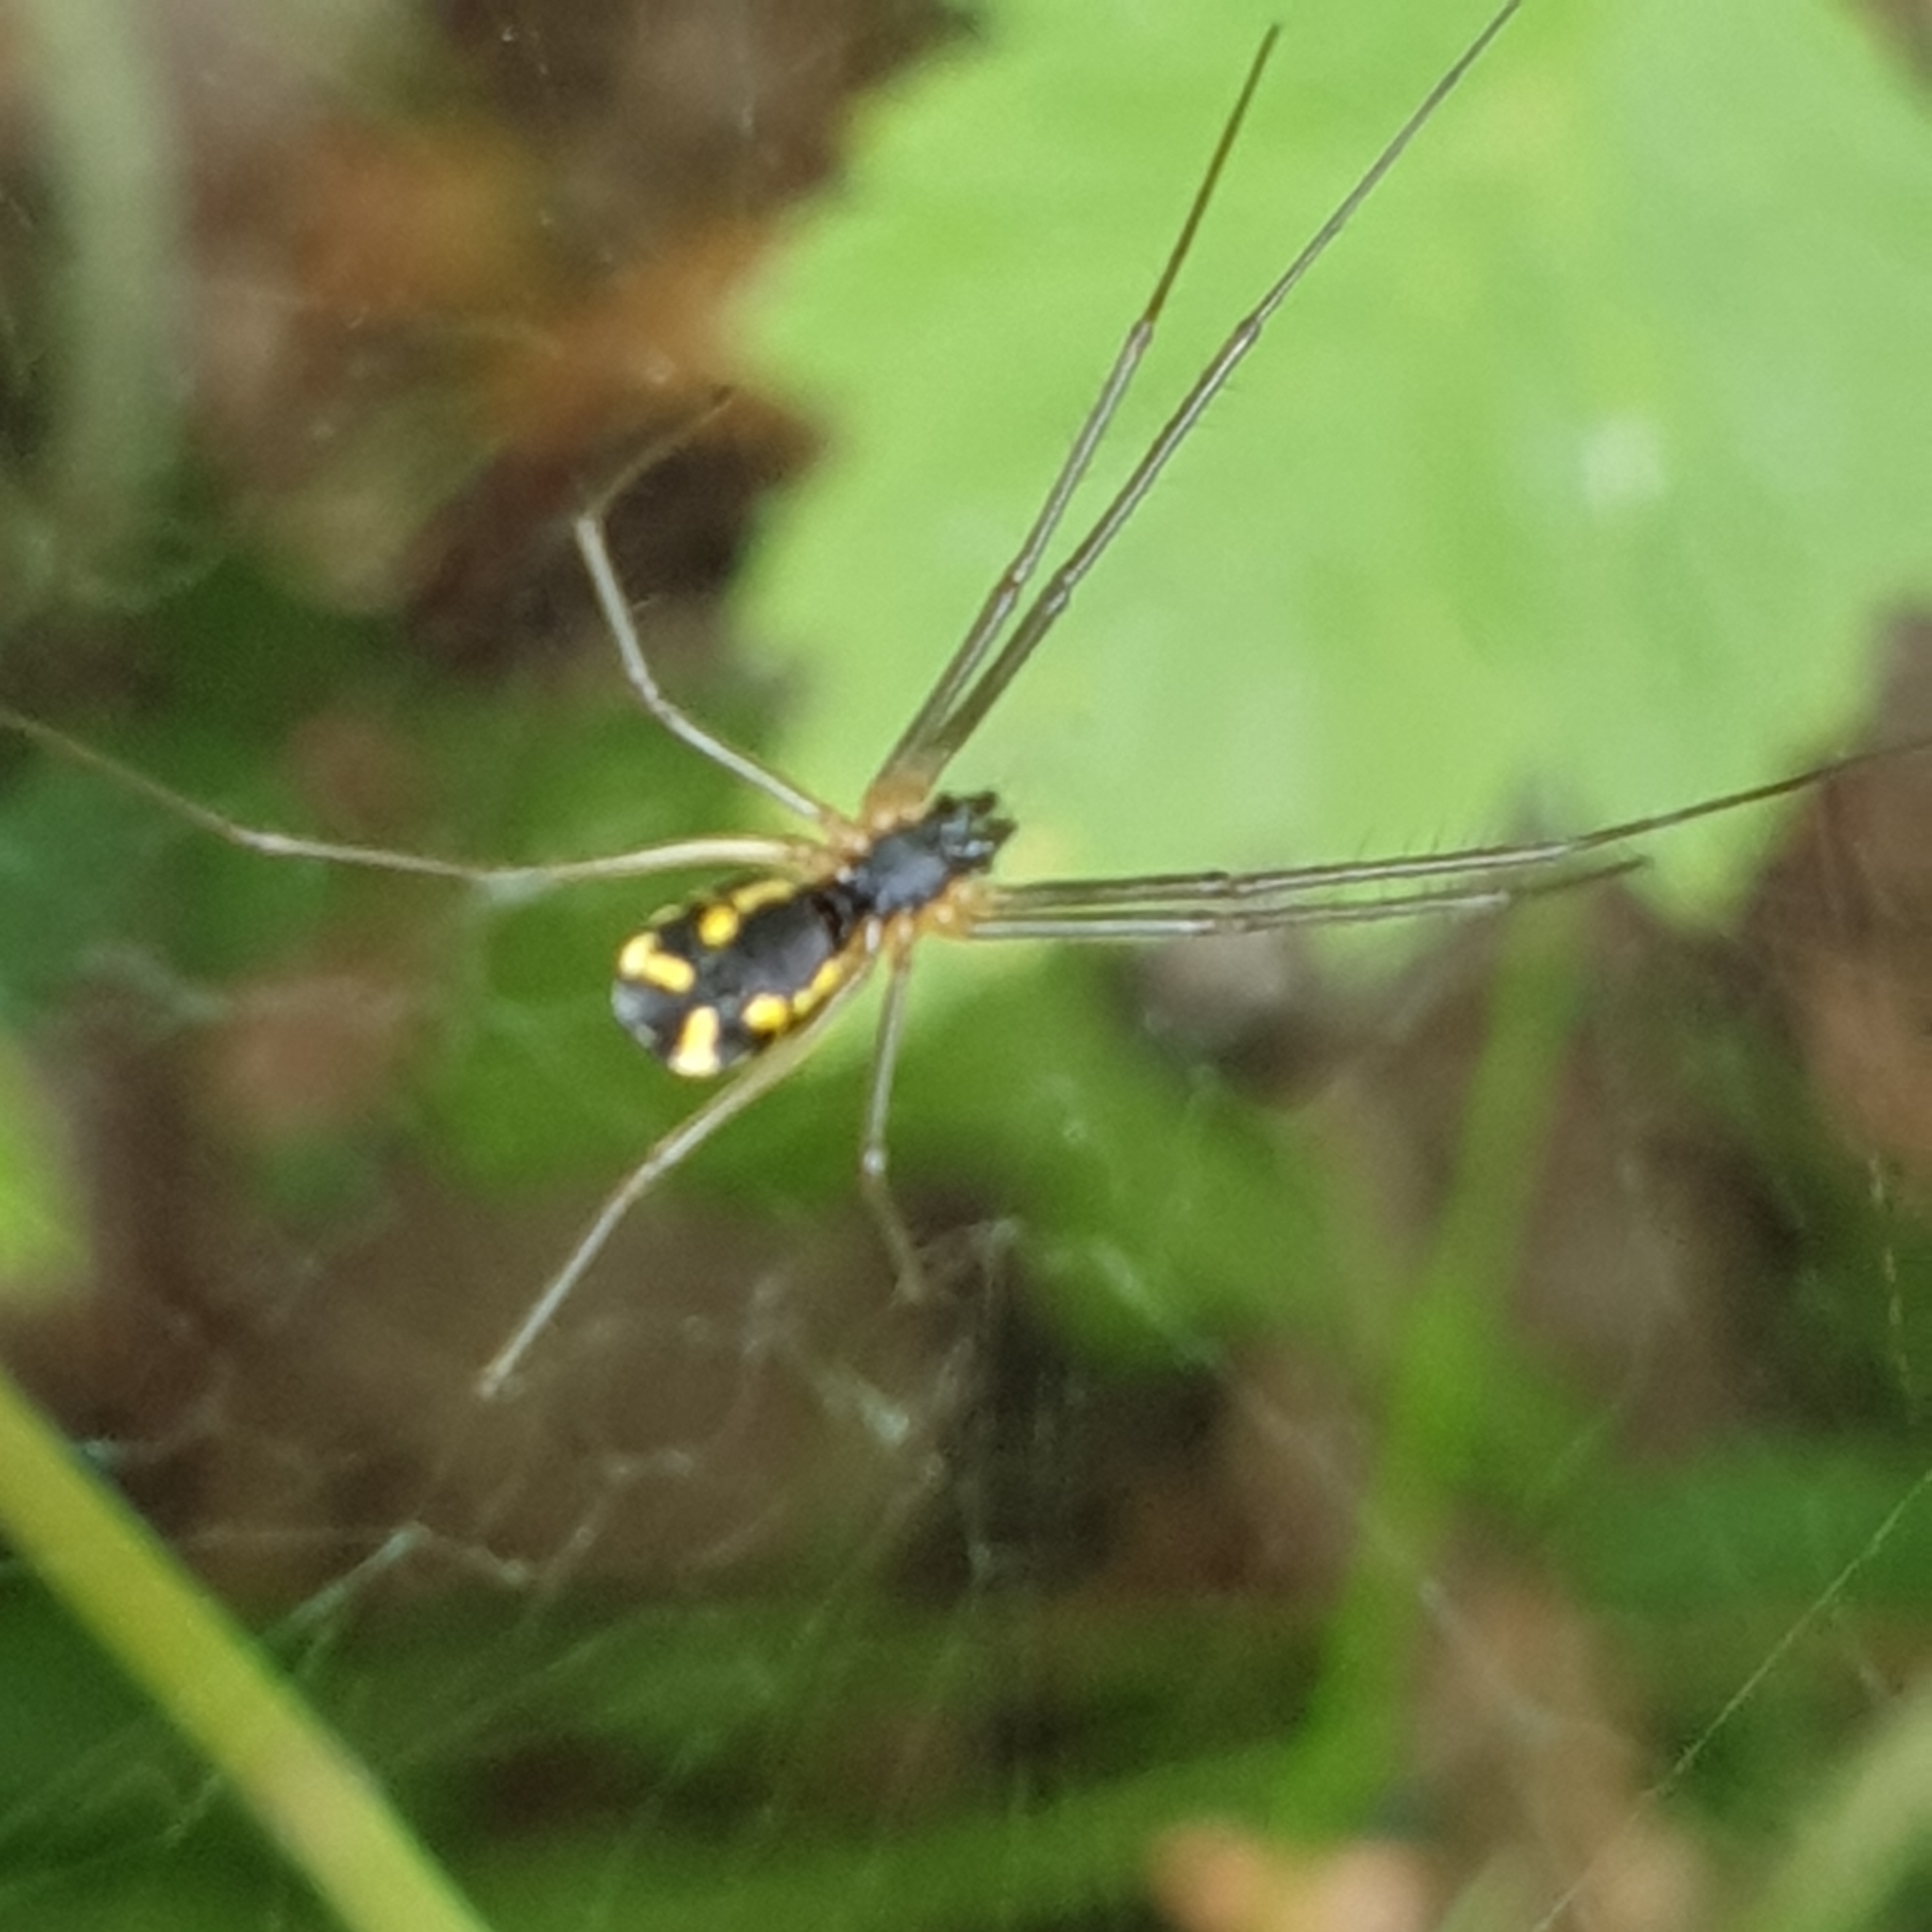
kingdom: Animalia
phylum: Arthropoda
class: Arachnida
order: Araneae
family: Linyphiidae
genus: Neriene
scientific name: Neriene radiata
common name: Filmy dome spider
